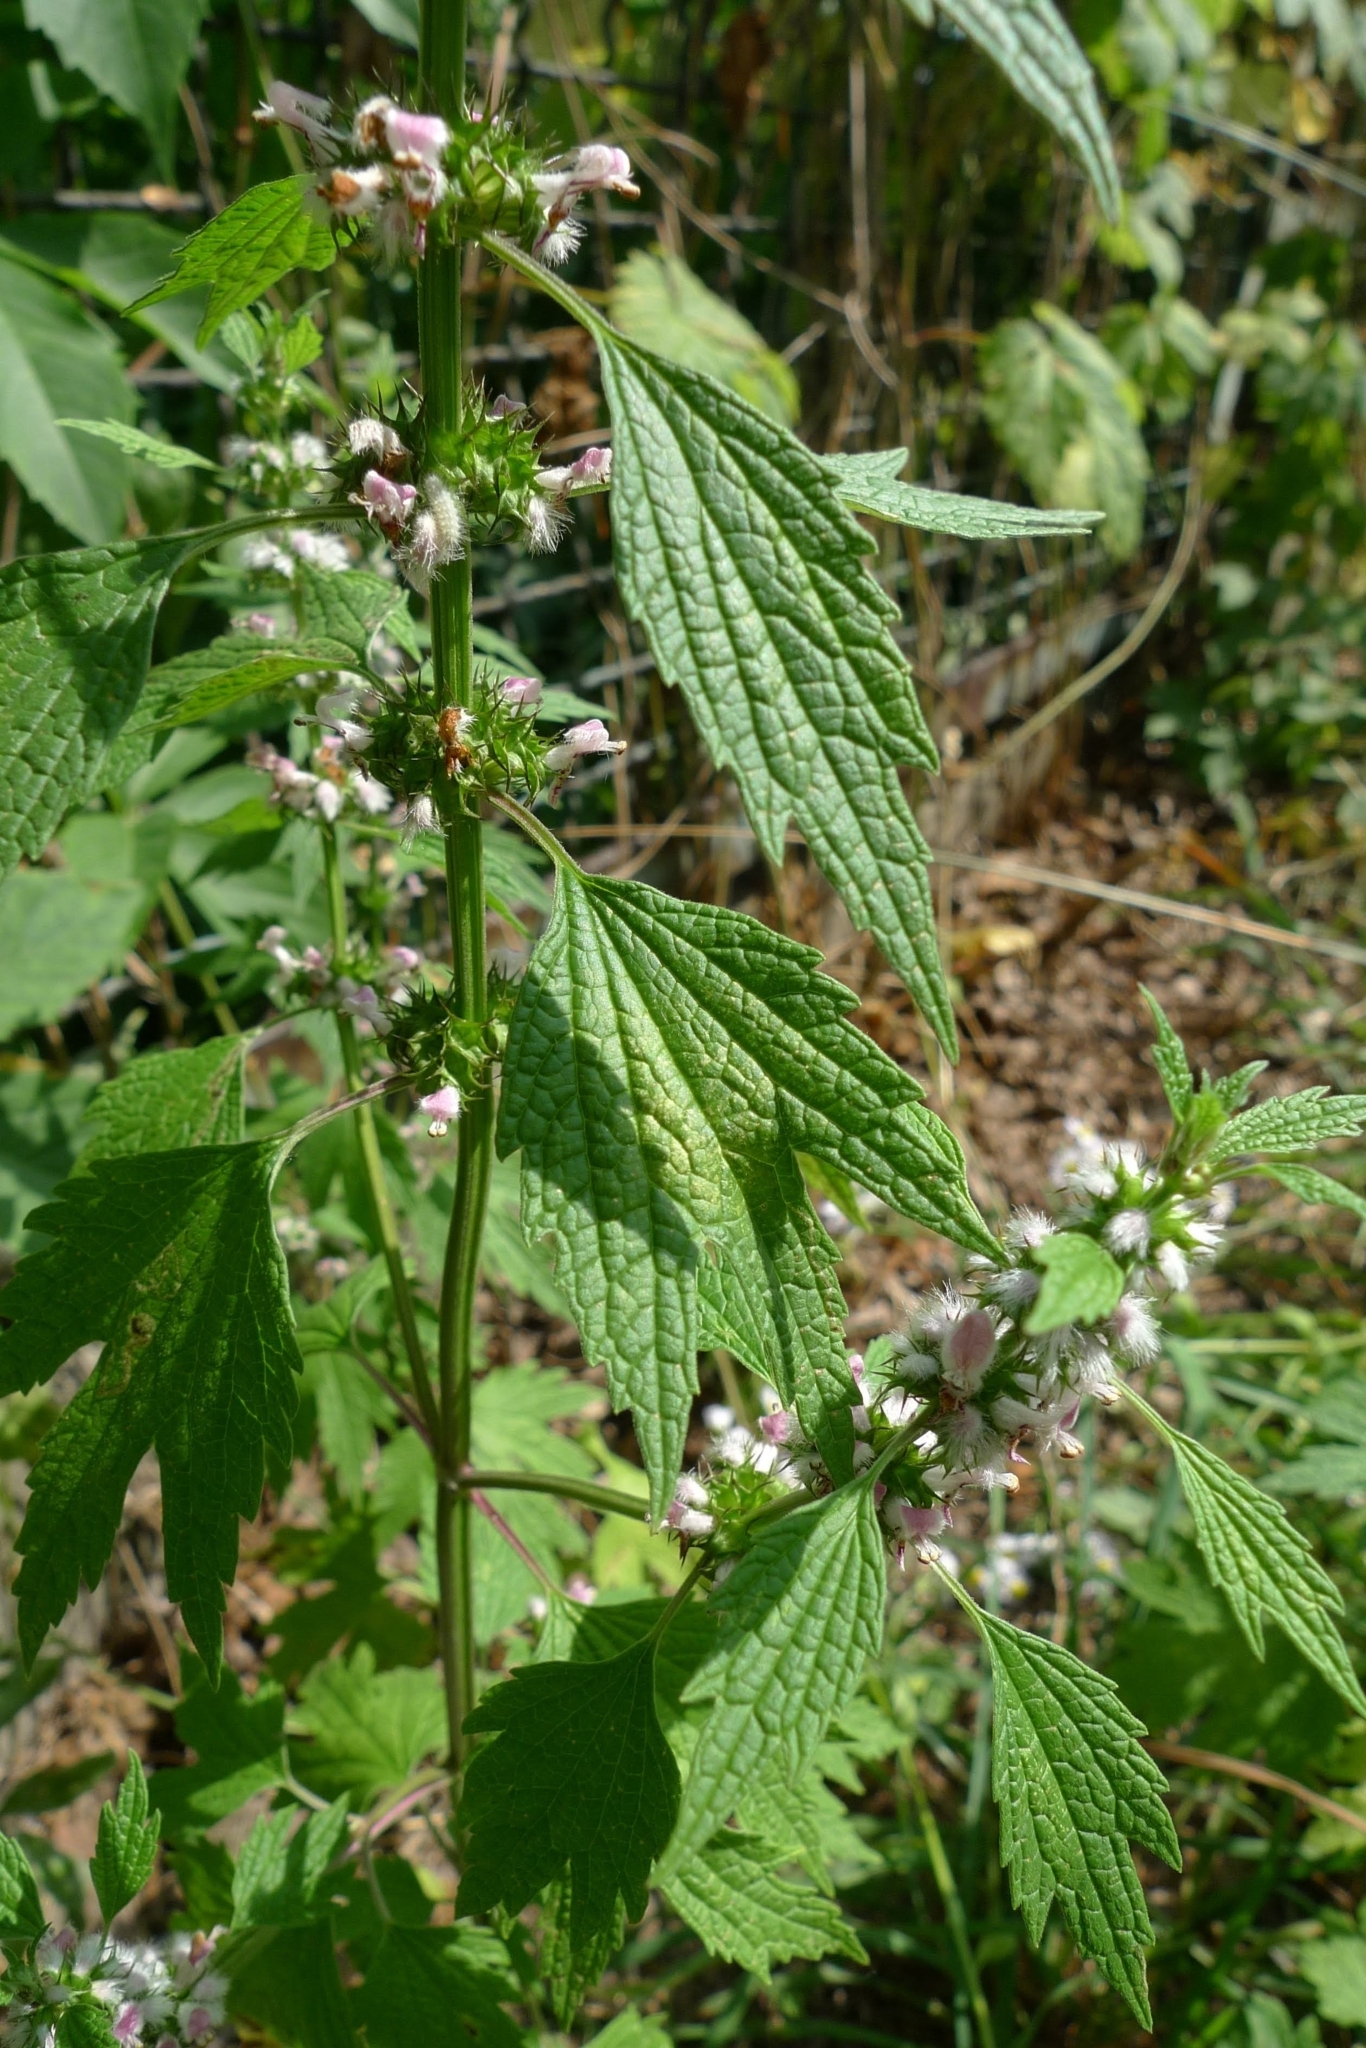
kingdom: Plantae
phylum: Tracheophyta
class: Magnoliopsida
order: Lamiales
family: Lamiaceae
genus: Leonurus
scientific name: Leonurus cardiaca
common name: Motherwort
